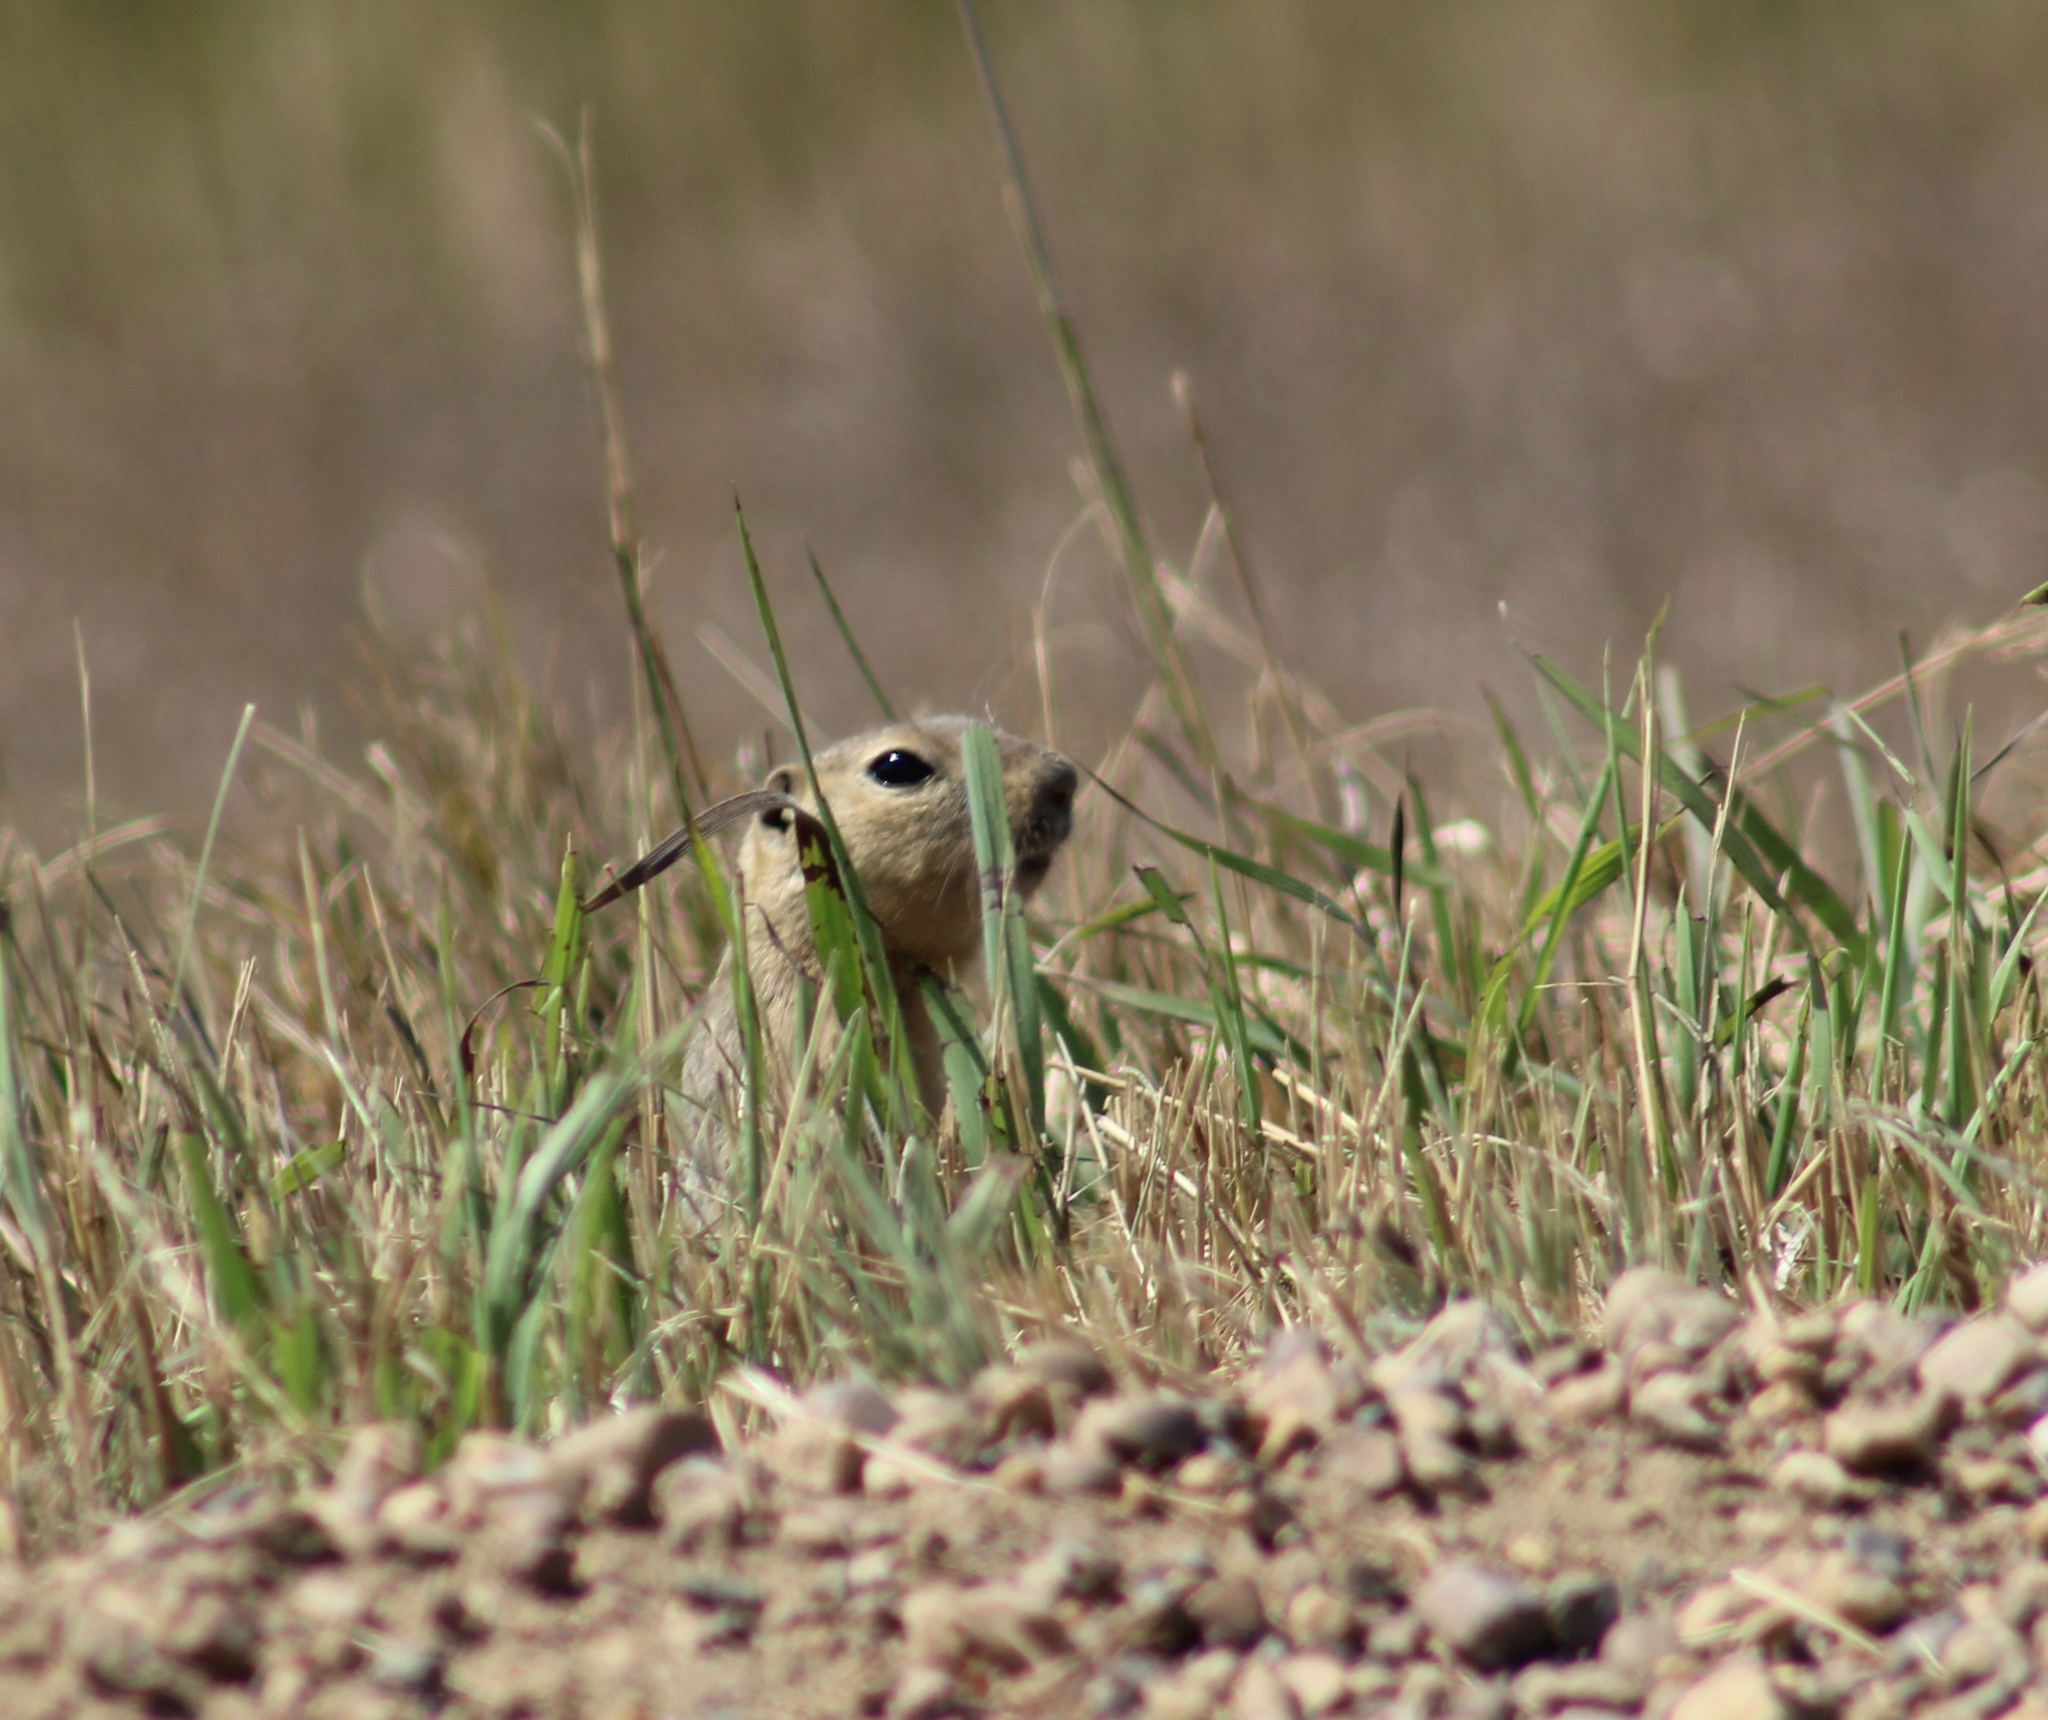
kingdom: Animalia
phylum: Chordata
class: Mammalia
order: Rodentia
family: Sciuridae
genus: Urocitellus
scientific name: Urocitellus richardsonii
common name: Richardson's ground squirrel
